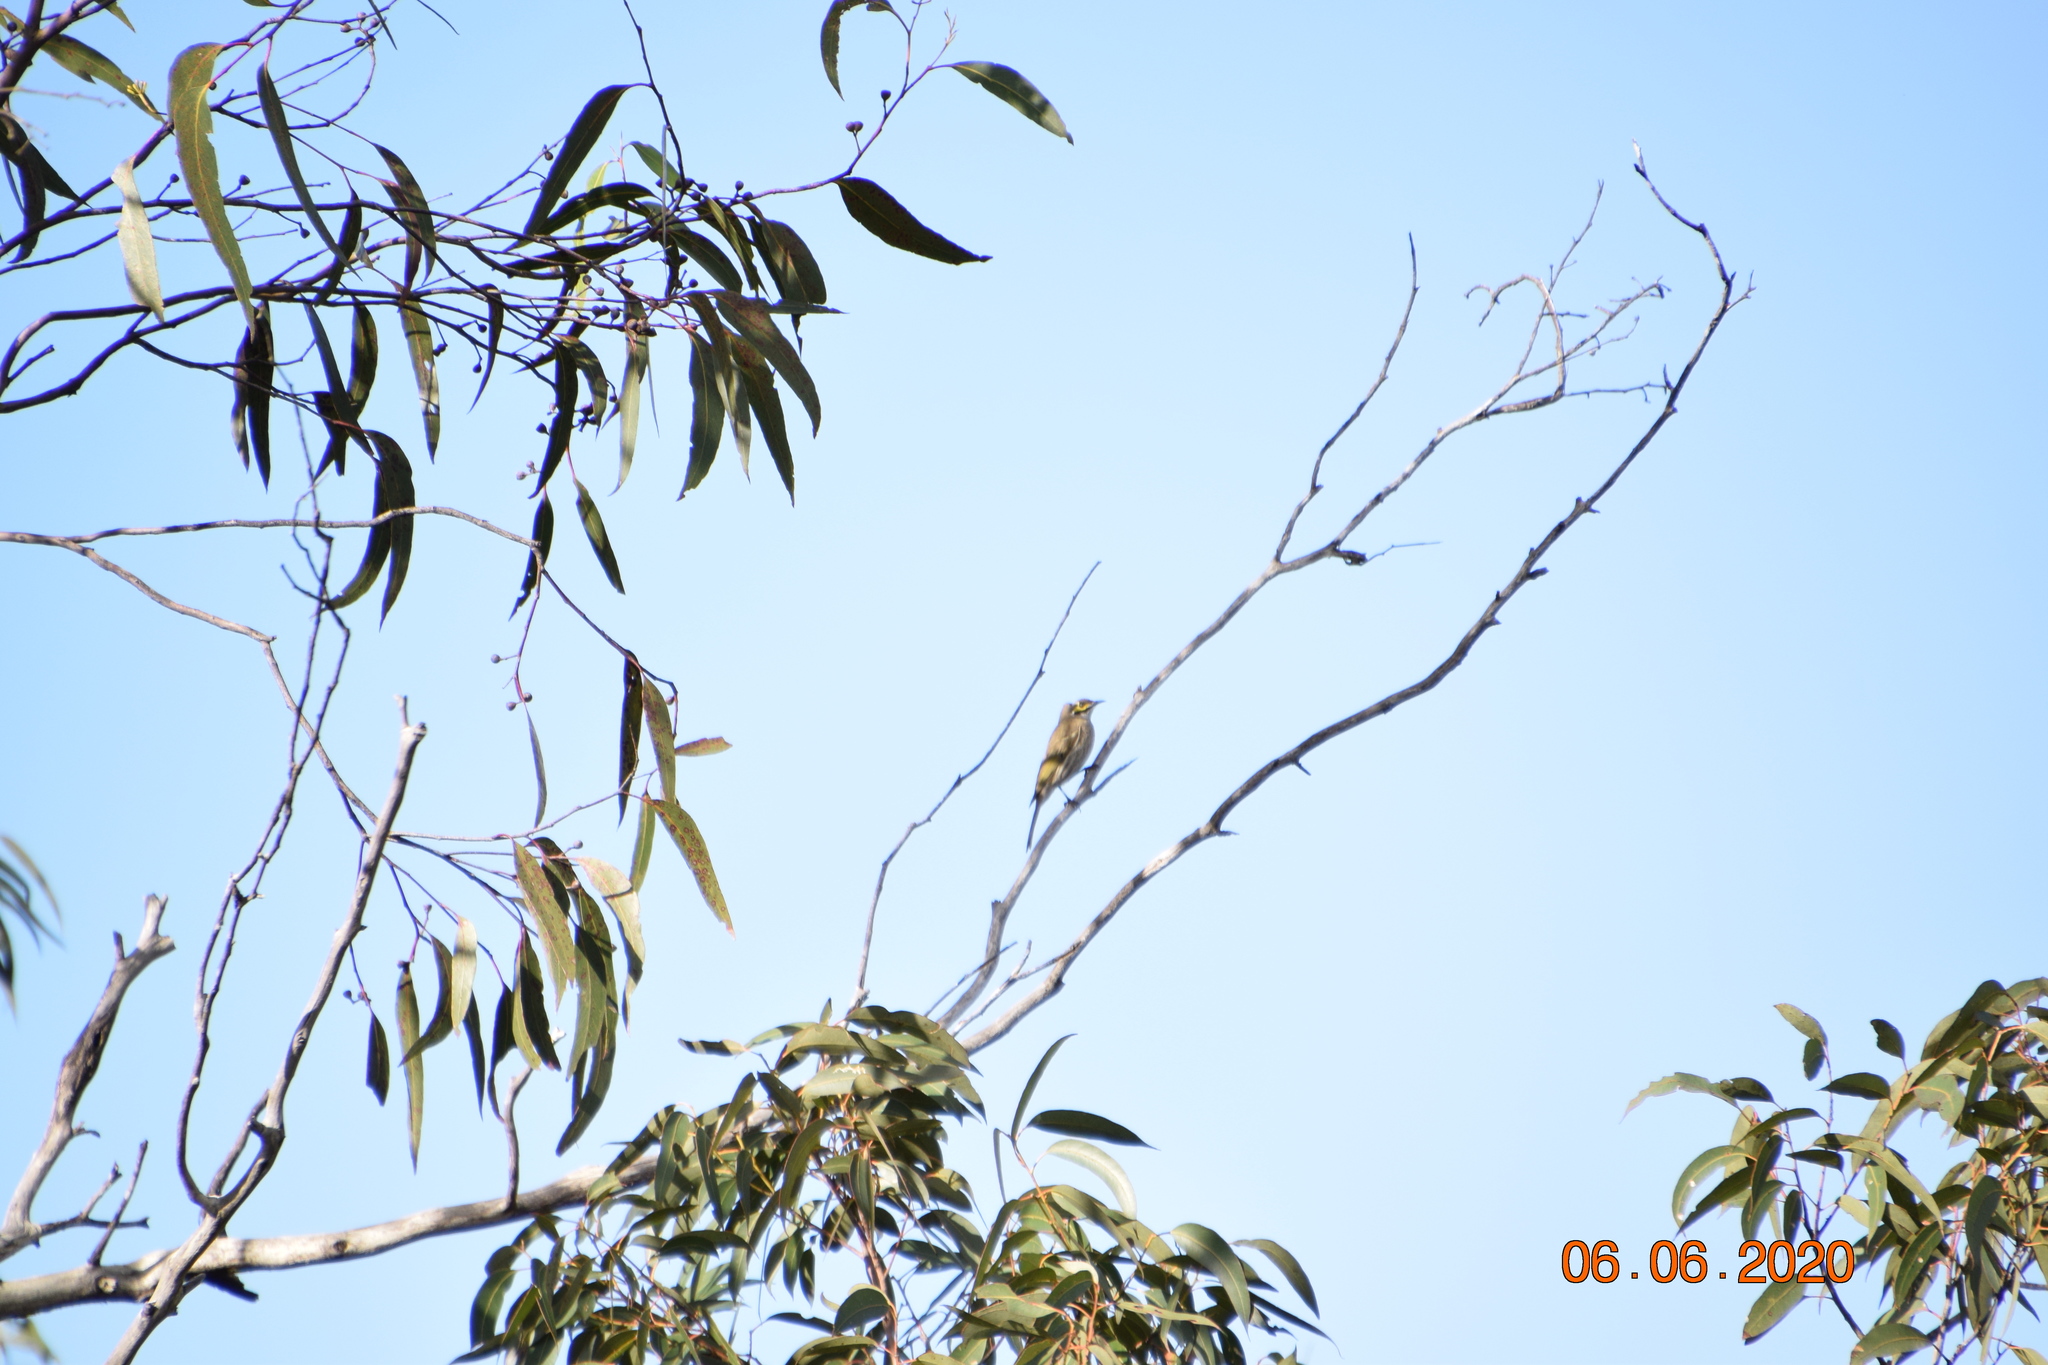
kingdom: Animalia
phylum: Chordata
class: Aves
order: Passeriformes
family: Meliphagidae
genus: Caligavis
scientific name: Caligavis chrysops
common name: Yellow-faced honeyeater
